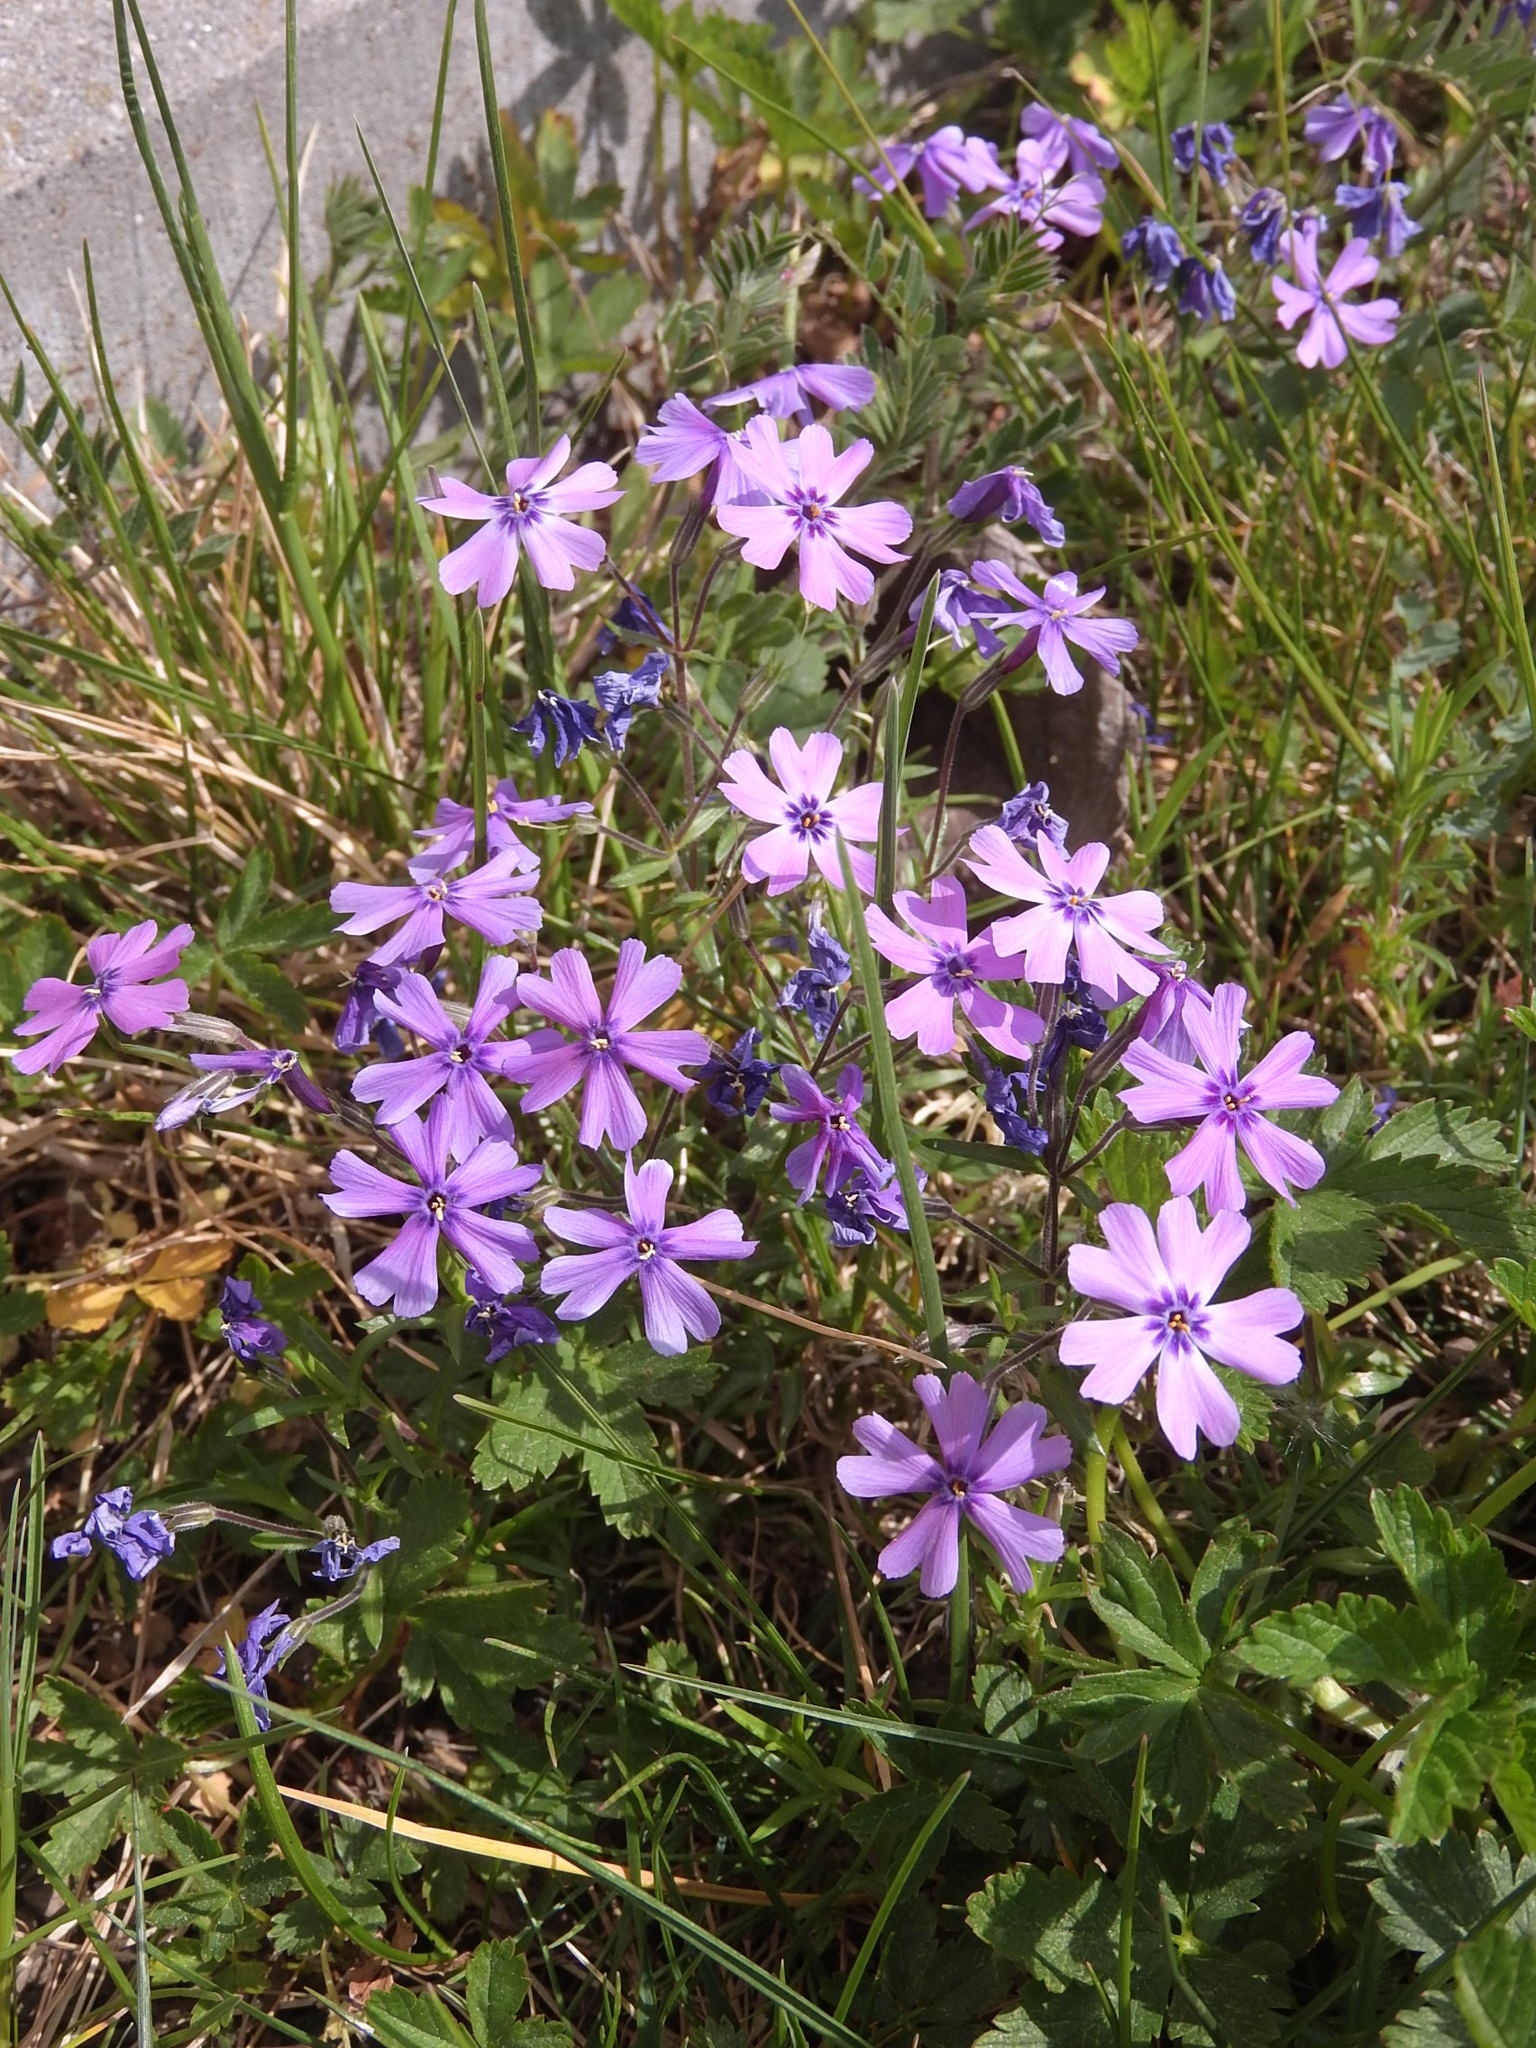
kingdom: Plantae
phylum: Tracheophyta
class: Magnoliopsida
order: Ericales
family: Polemoniaceae
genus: Phlox
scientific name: Phlox subulata
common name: Moss phlox
